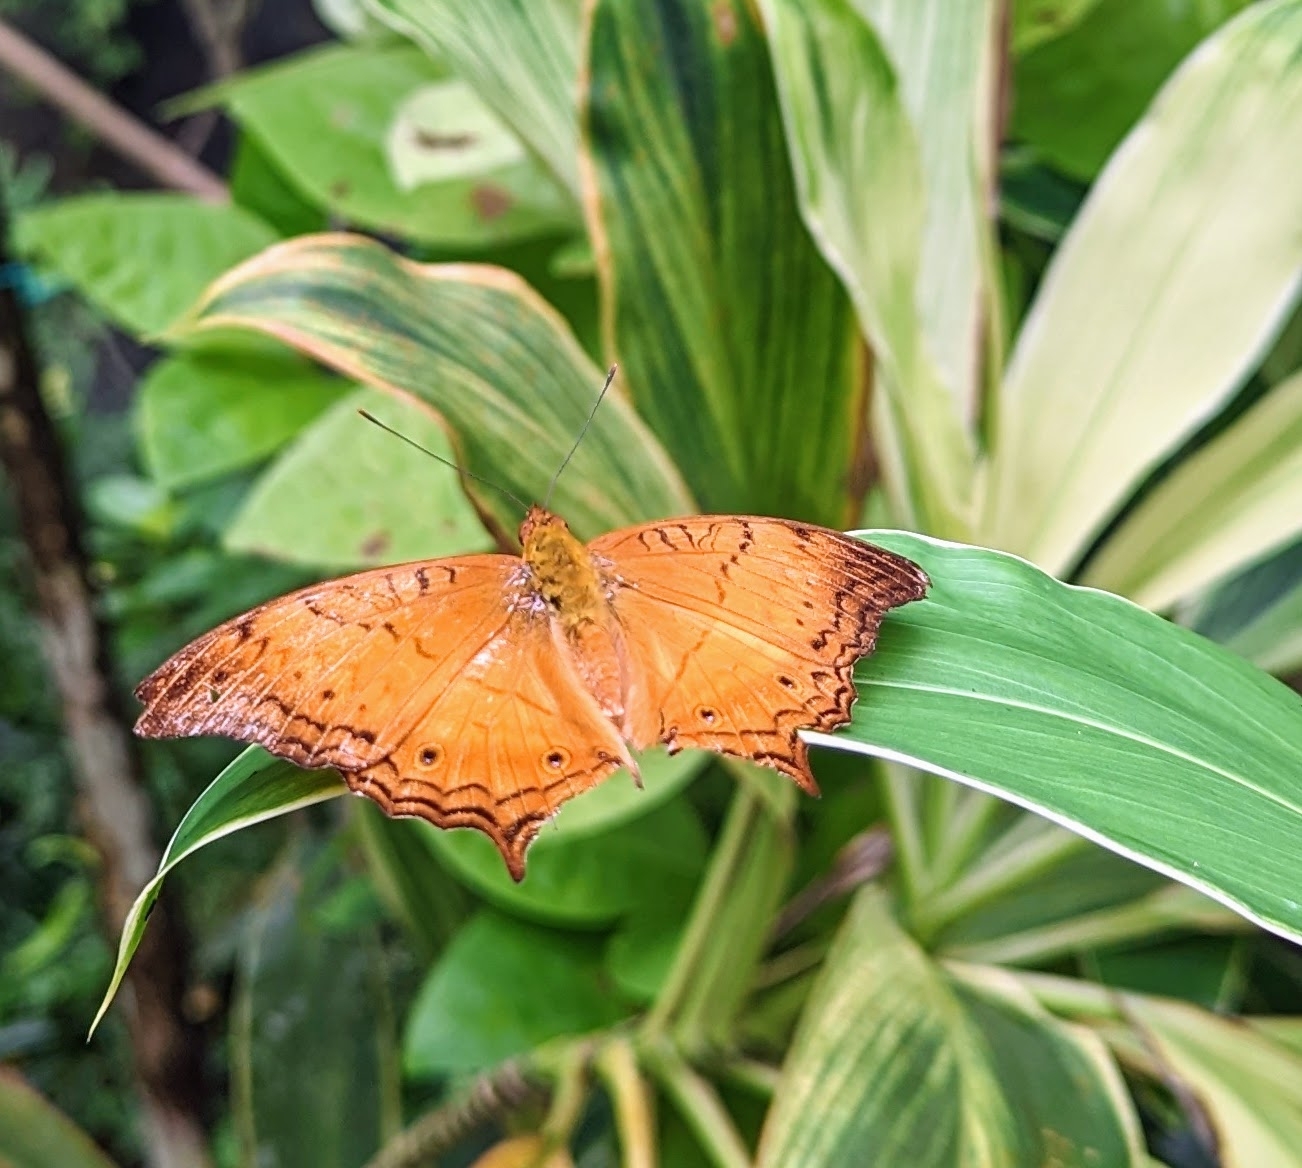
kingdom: Animalia
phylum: Arthropoda
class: Insecta
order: Lepidoptera
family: Nymphalidae
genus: Vindula
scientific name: Vindula deione
